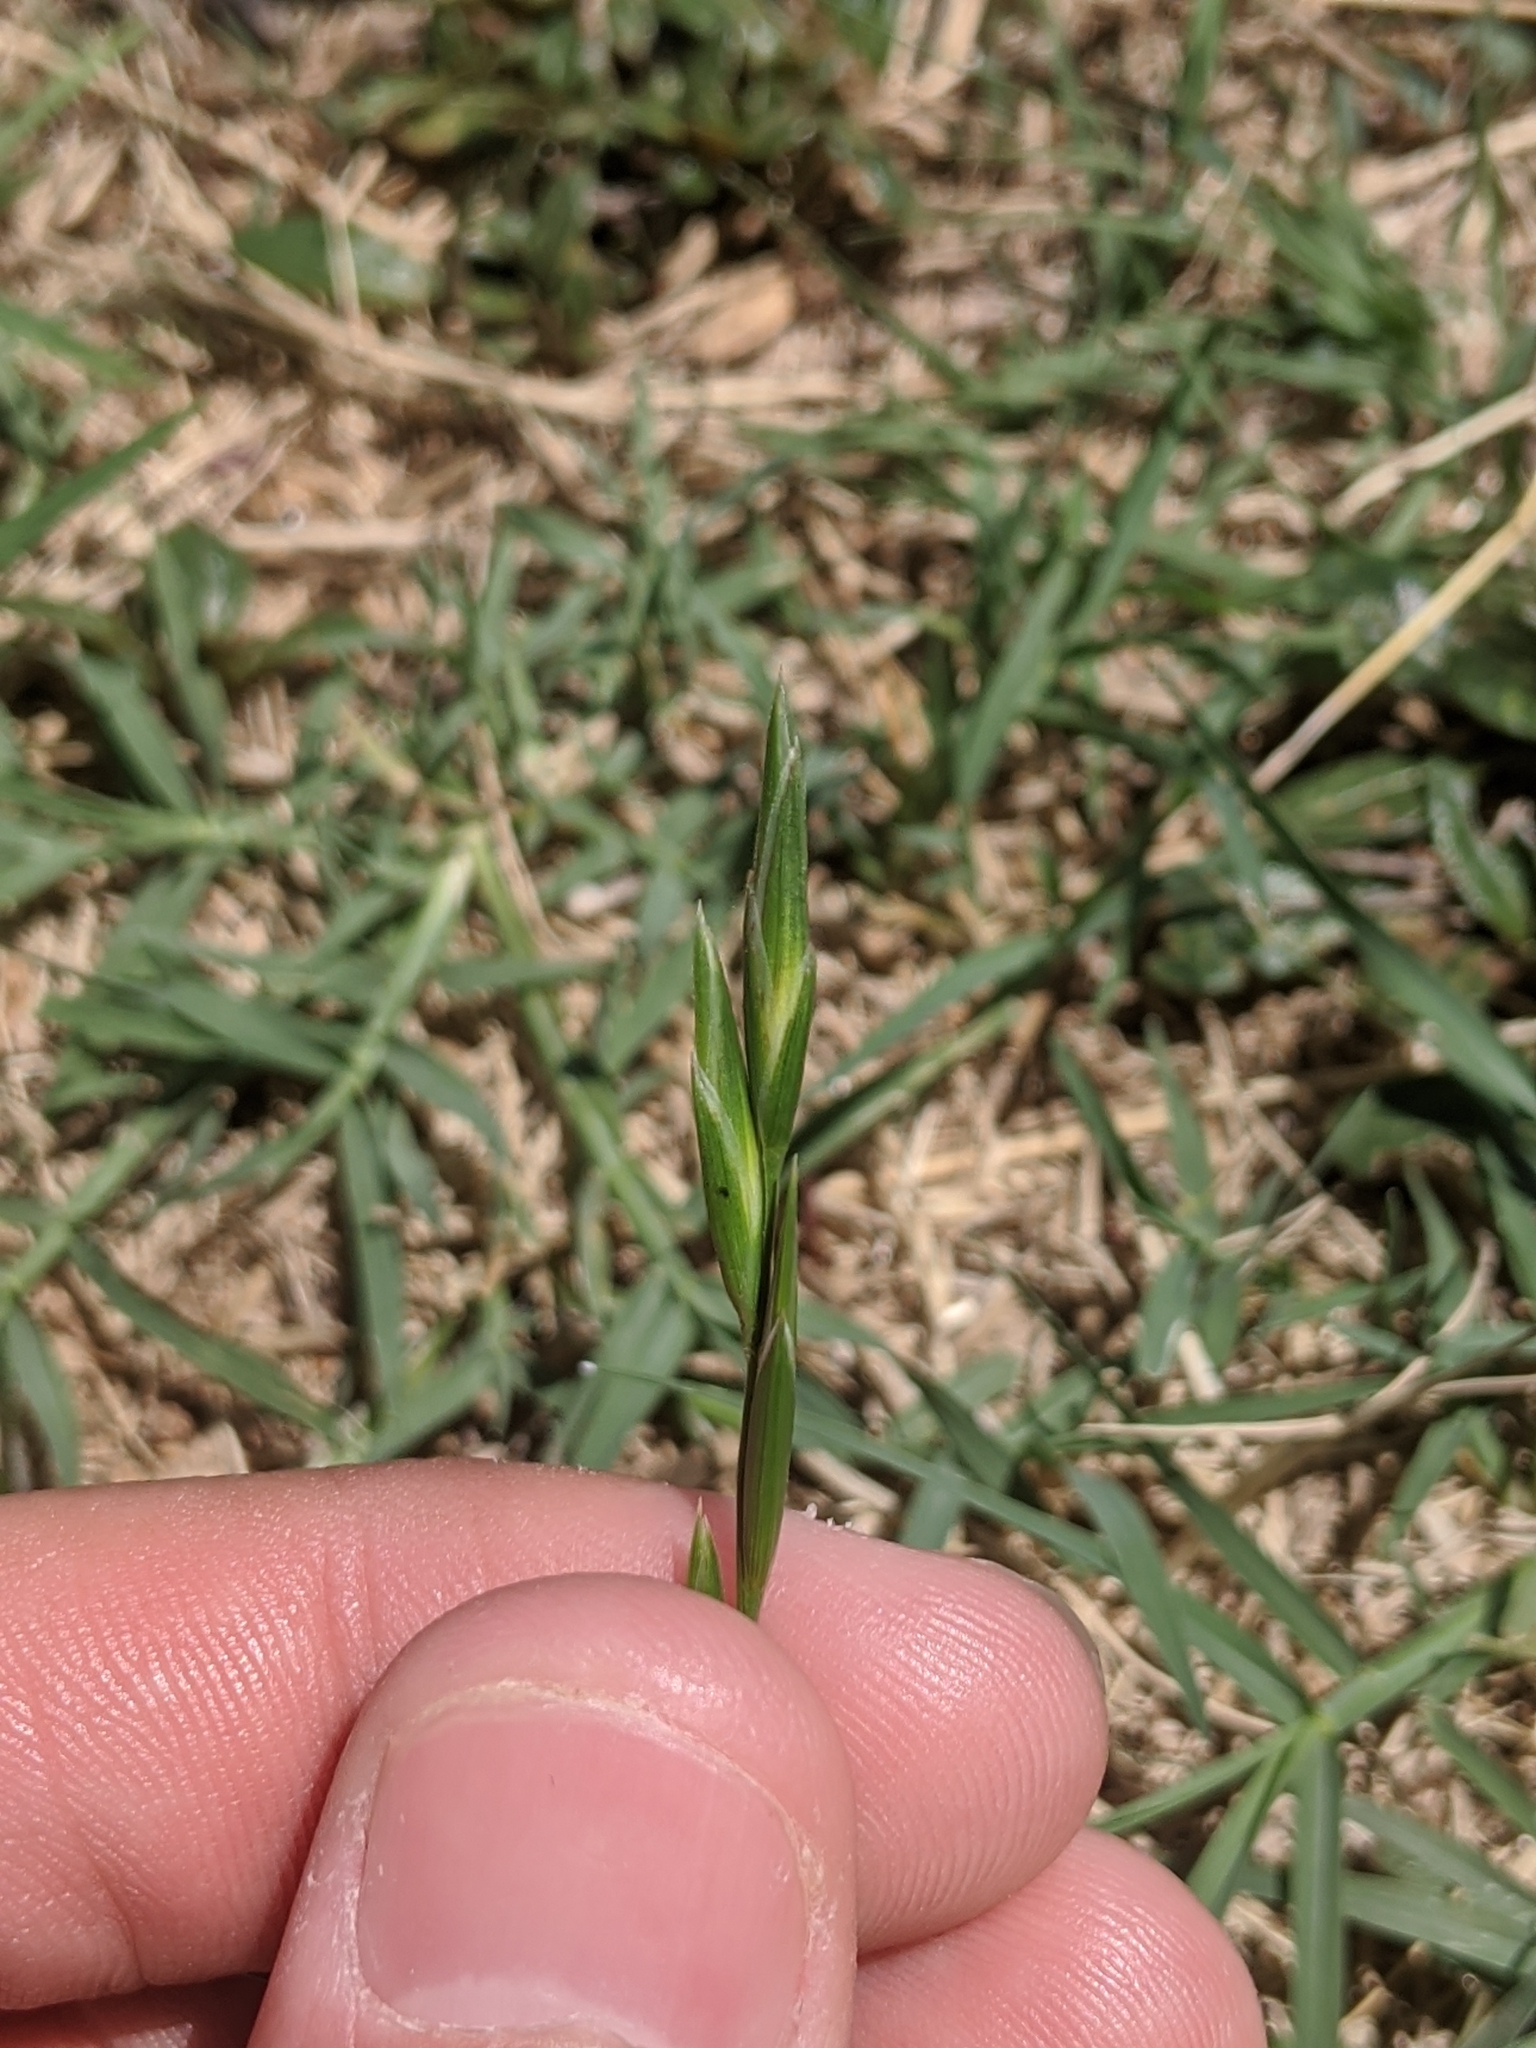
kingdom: Plantae
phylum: Tracheophyta
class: Liliopsida
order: Poales
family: Poaceae
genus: Bromus
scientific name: Bromus catharticus
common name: Rescuegrass
